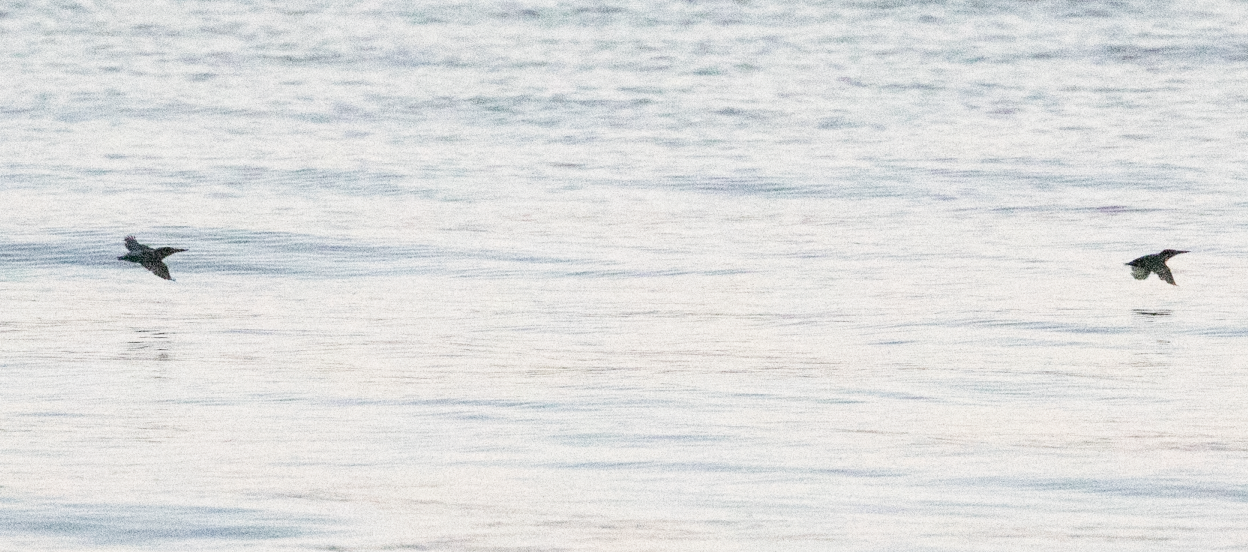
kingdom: Animalia
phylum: Chordata
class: Aves
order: Coraciiformes
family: Alcedinidae
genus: Alcedo
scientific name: Alcedo atthis
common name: Common kingfisher
